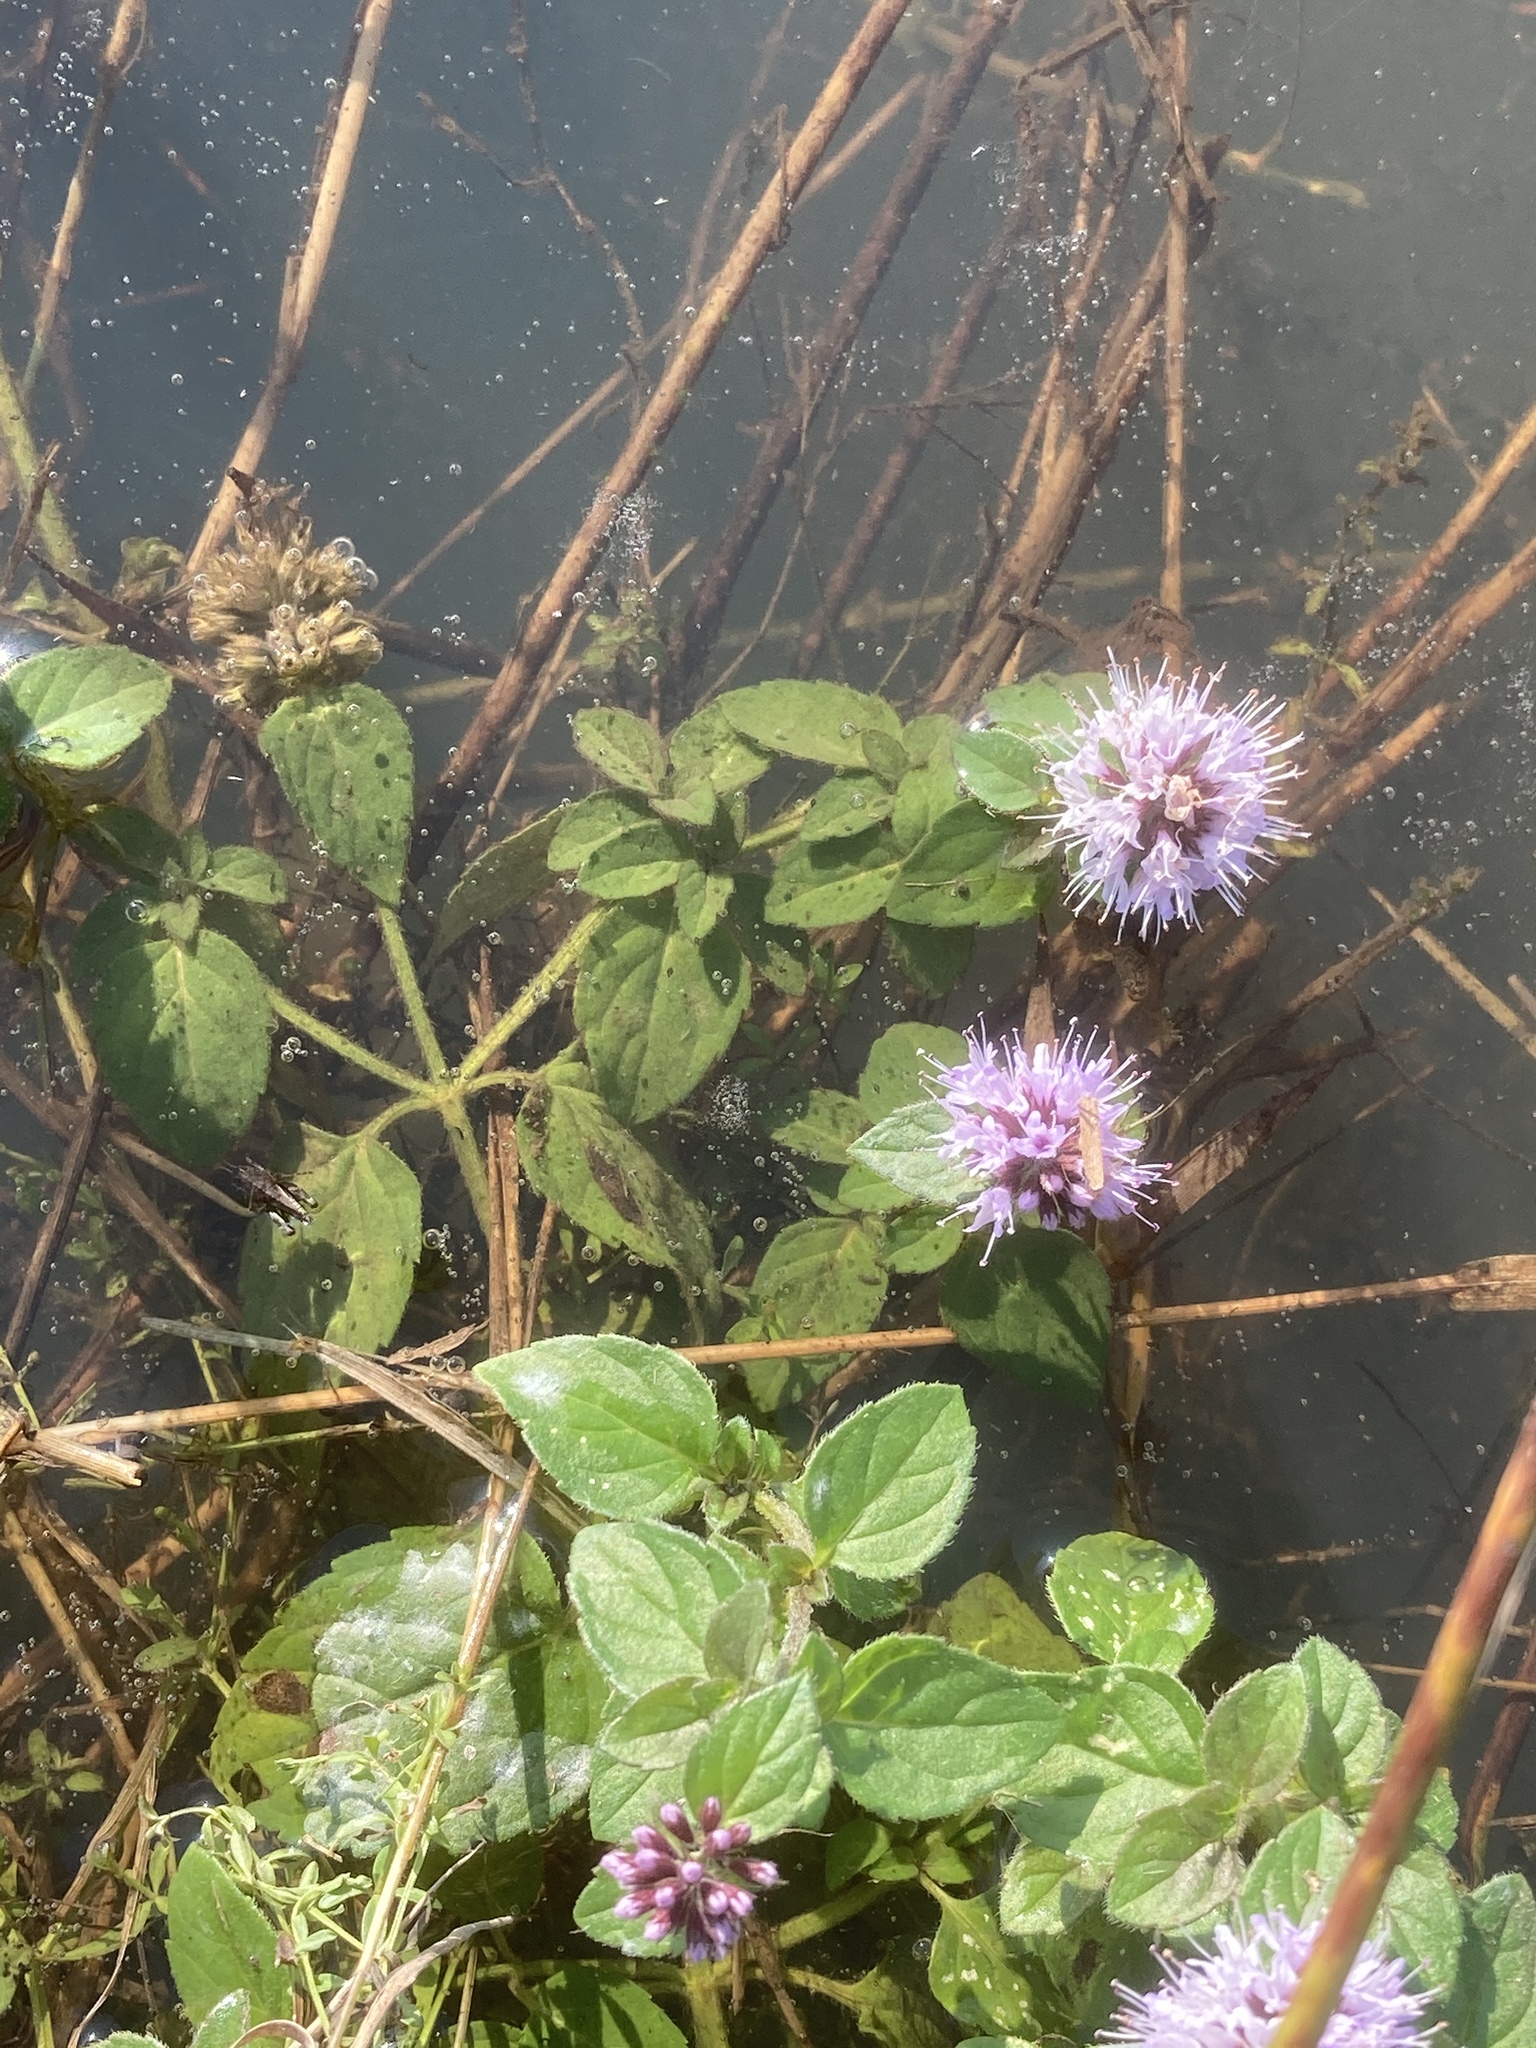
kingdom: Plantae
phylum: Tracheophyta
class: Magnoliopsida
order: Lamiales
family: Lamiaceae
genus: Mentha
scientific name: Mentha aquatica
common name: Water mint
